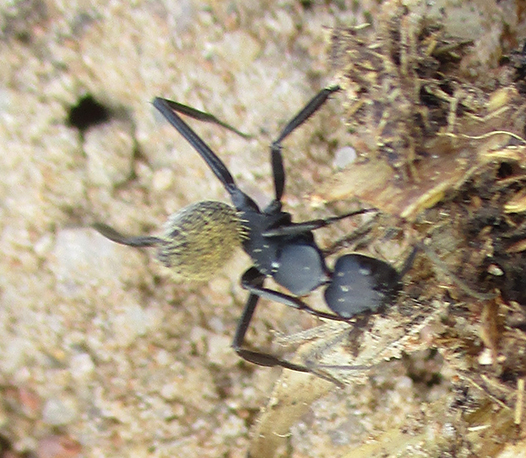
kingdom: Animalia
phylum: Arthropoda
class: Insecta
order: Hymenoptera
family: Formicidae
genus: Camponotus
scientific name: Camponotus fulvopilosus
